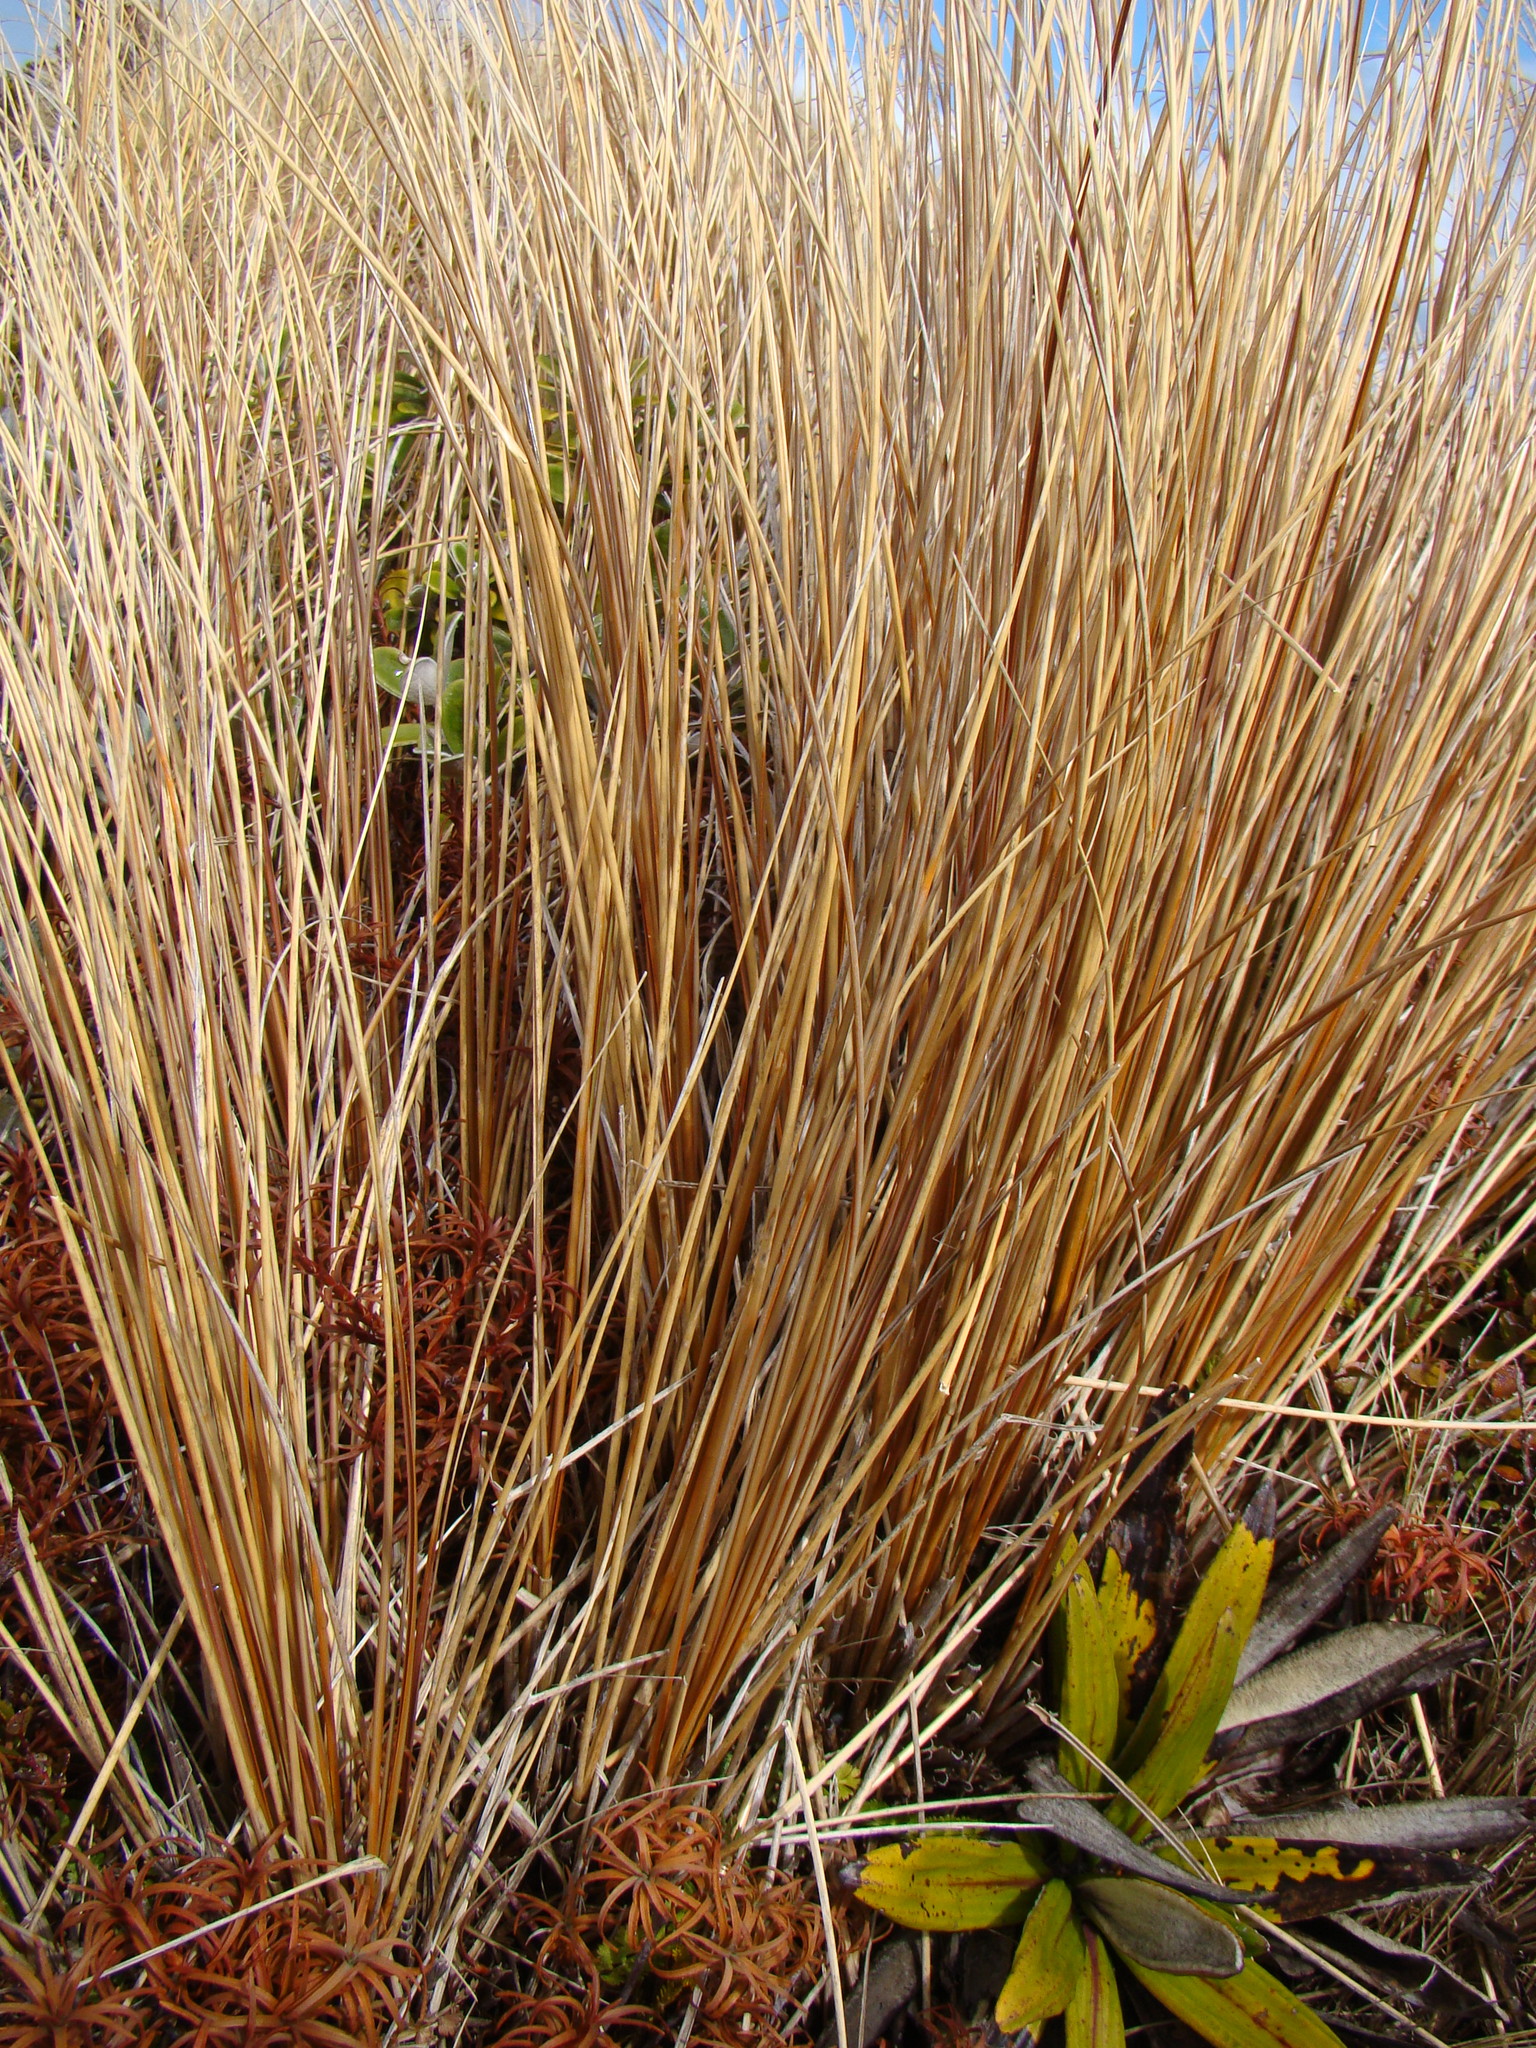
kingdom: Plantae
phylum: Tracheophyta
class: Liliopsida
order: Poales
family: Poaceae
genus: Chionochloa
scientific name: Chionochloa rubra
